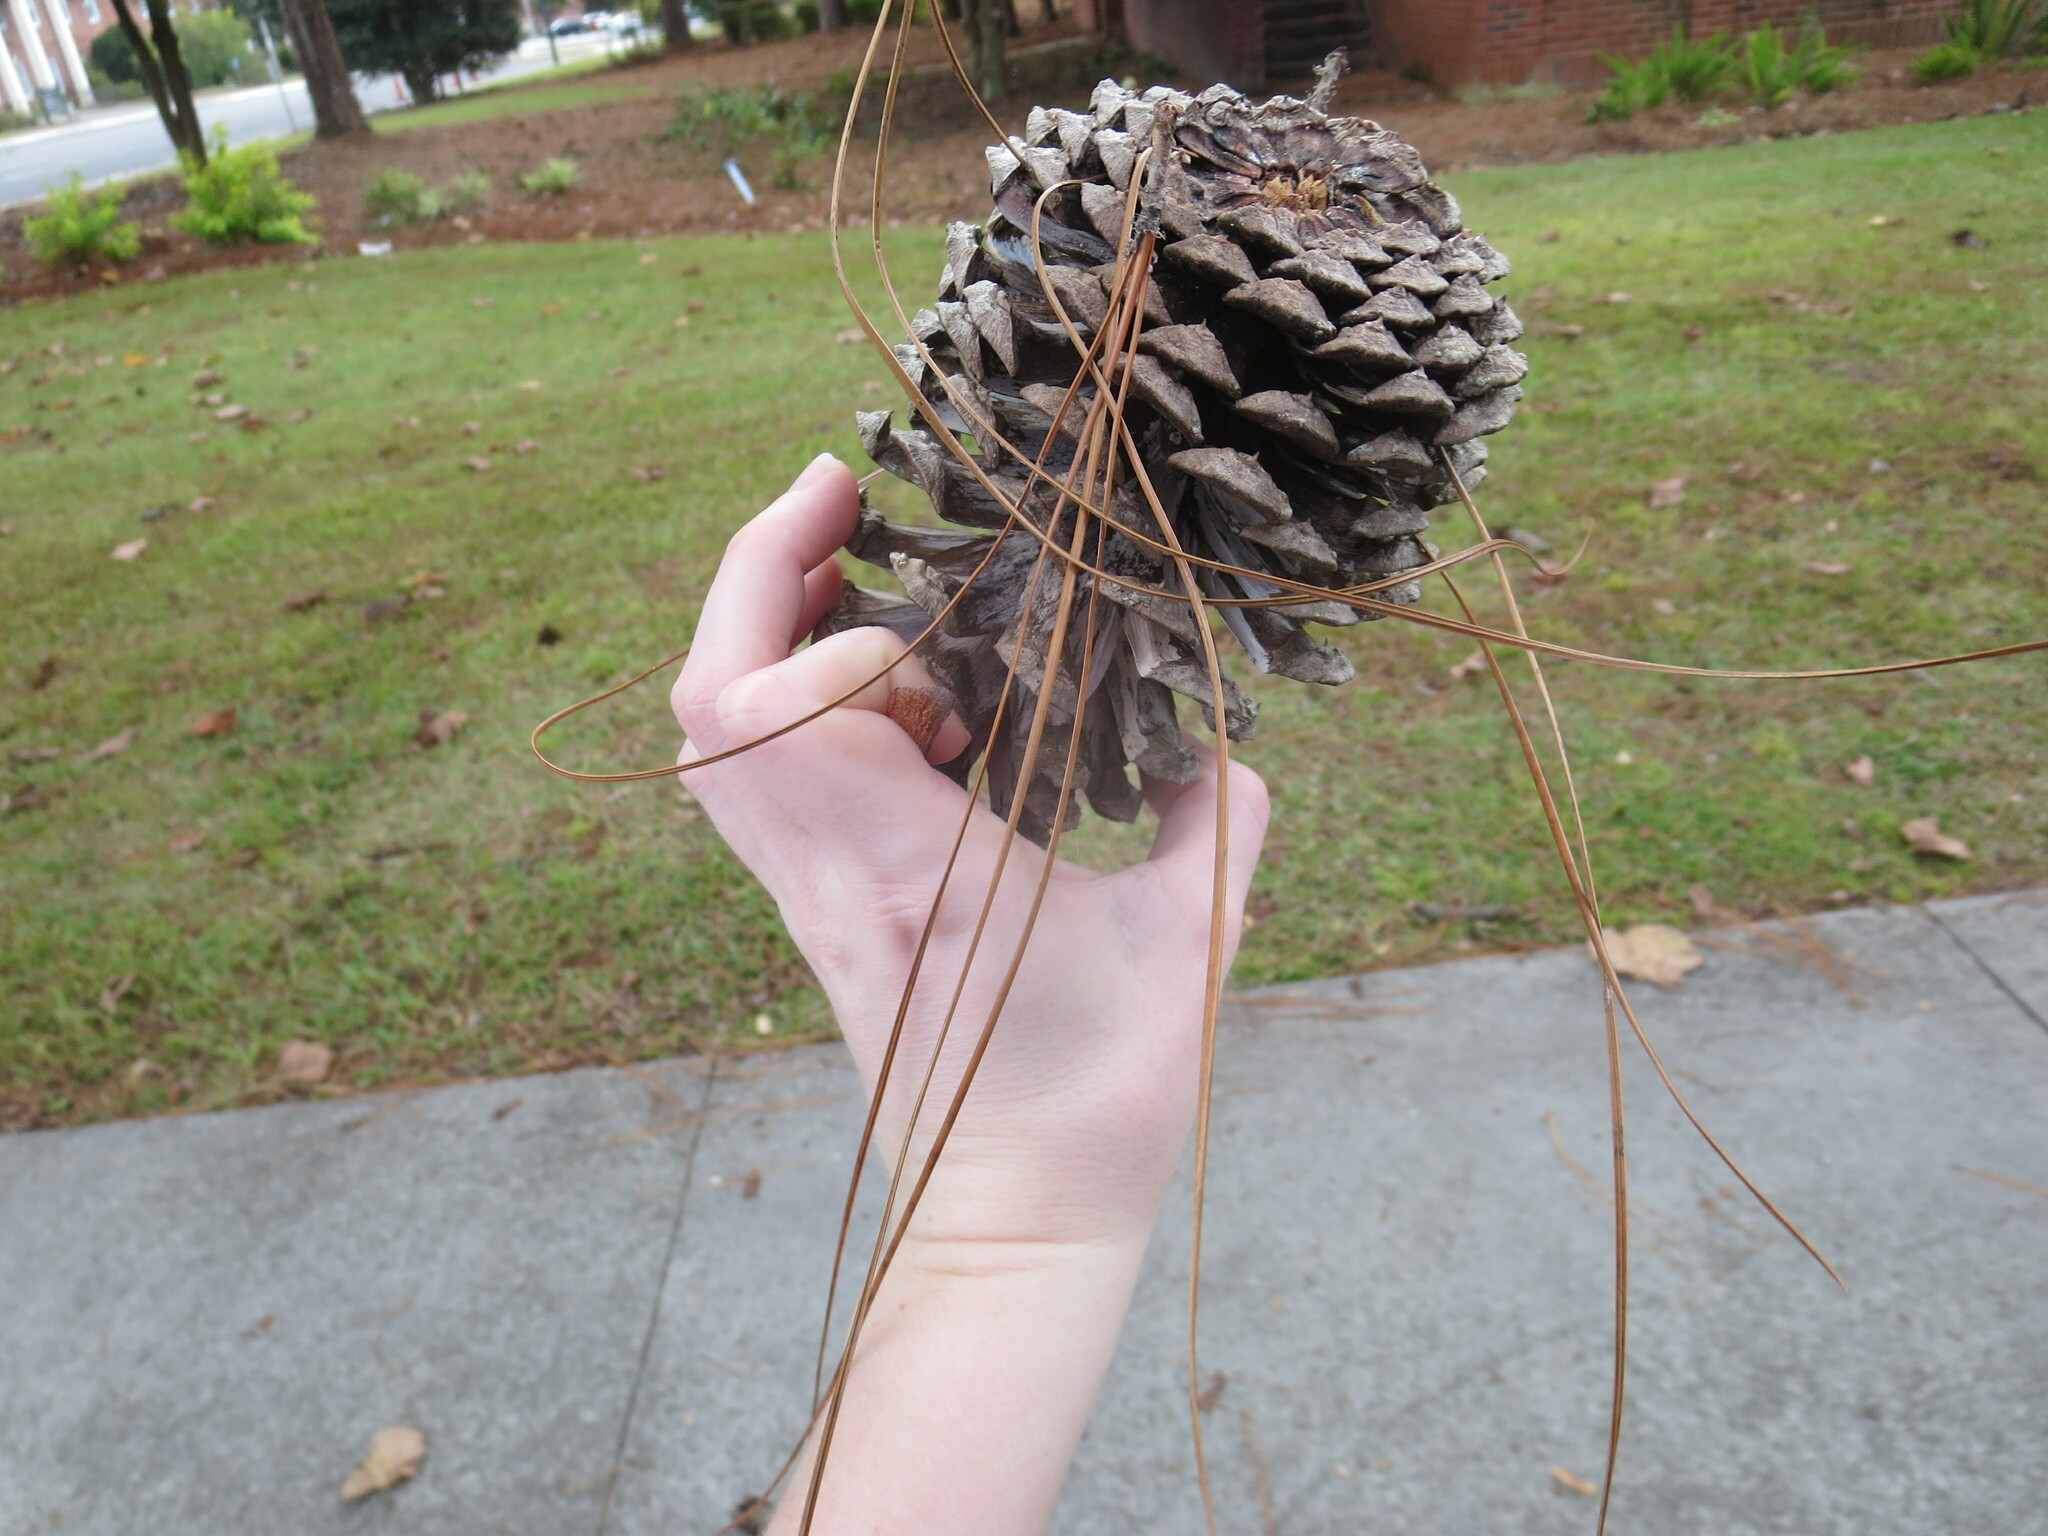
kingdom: Plantae
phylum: Tracheophyta
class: Pinopsida
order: Pinales
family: Pinaceae
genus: Pinus
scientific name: Pinus palustris
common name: Longleaf pine
